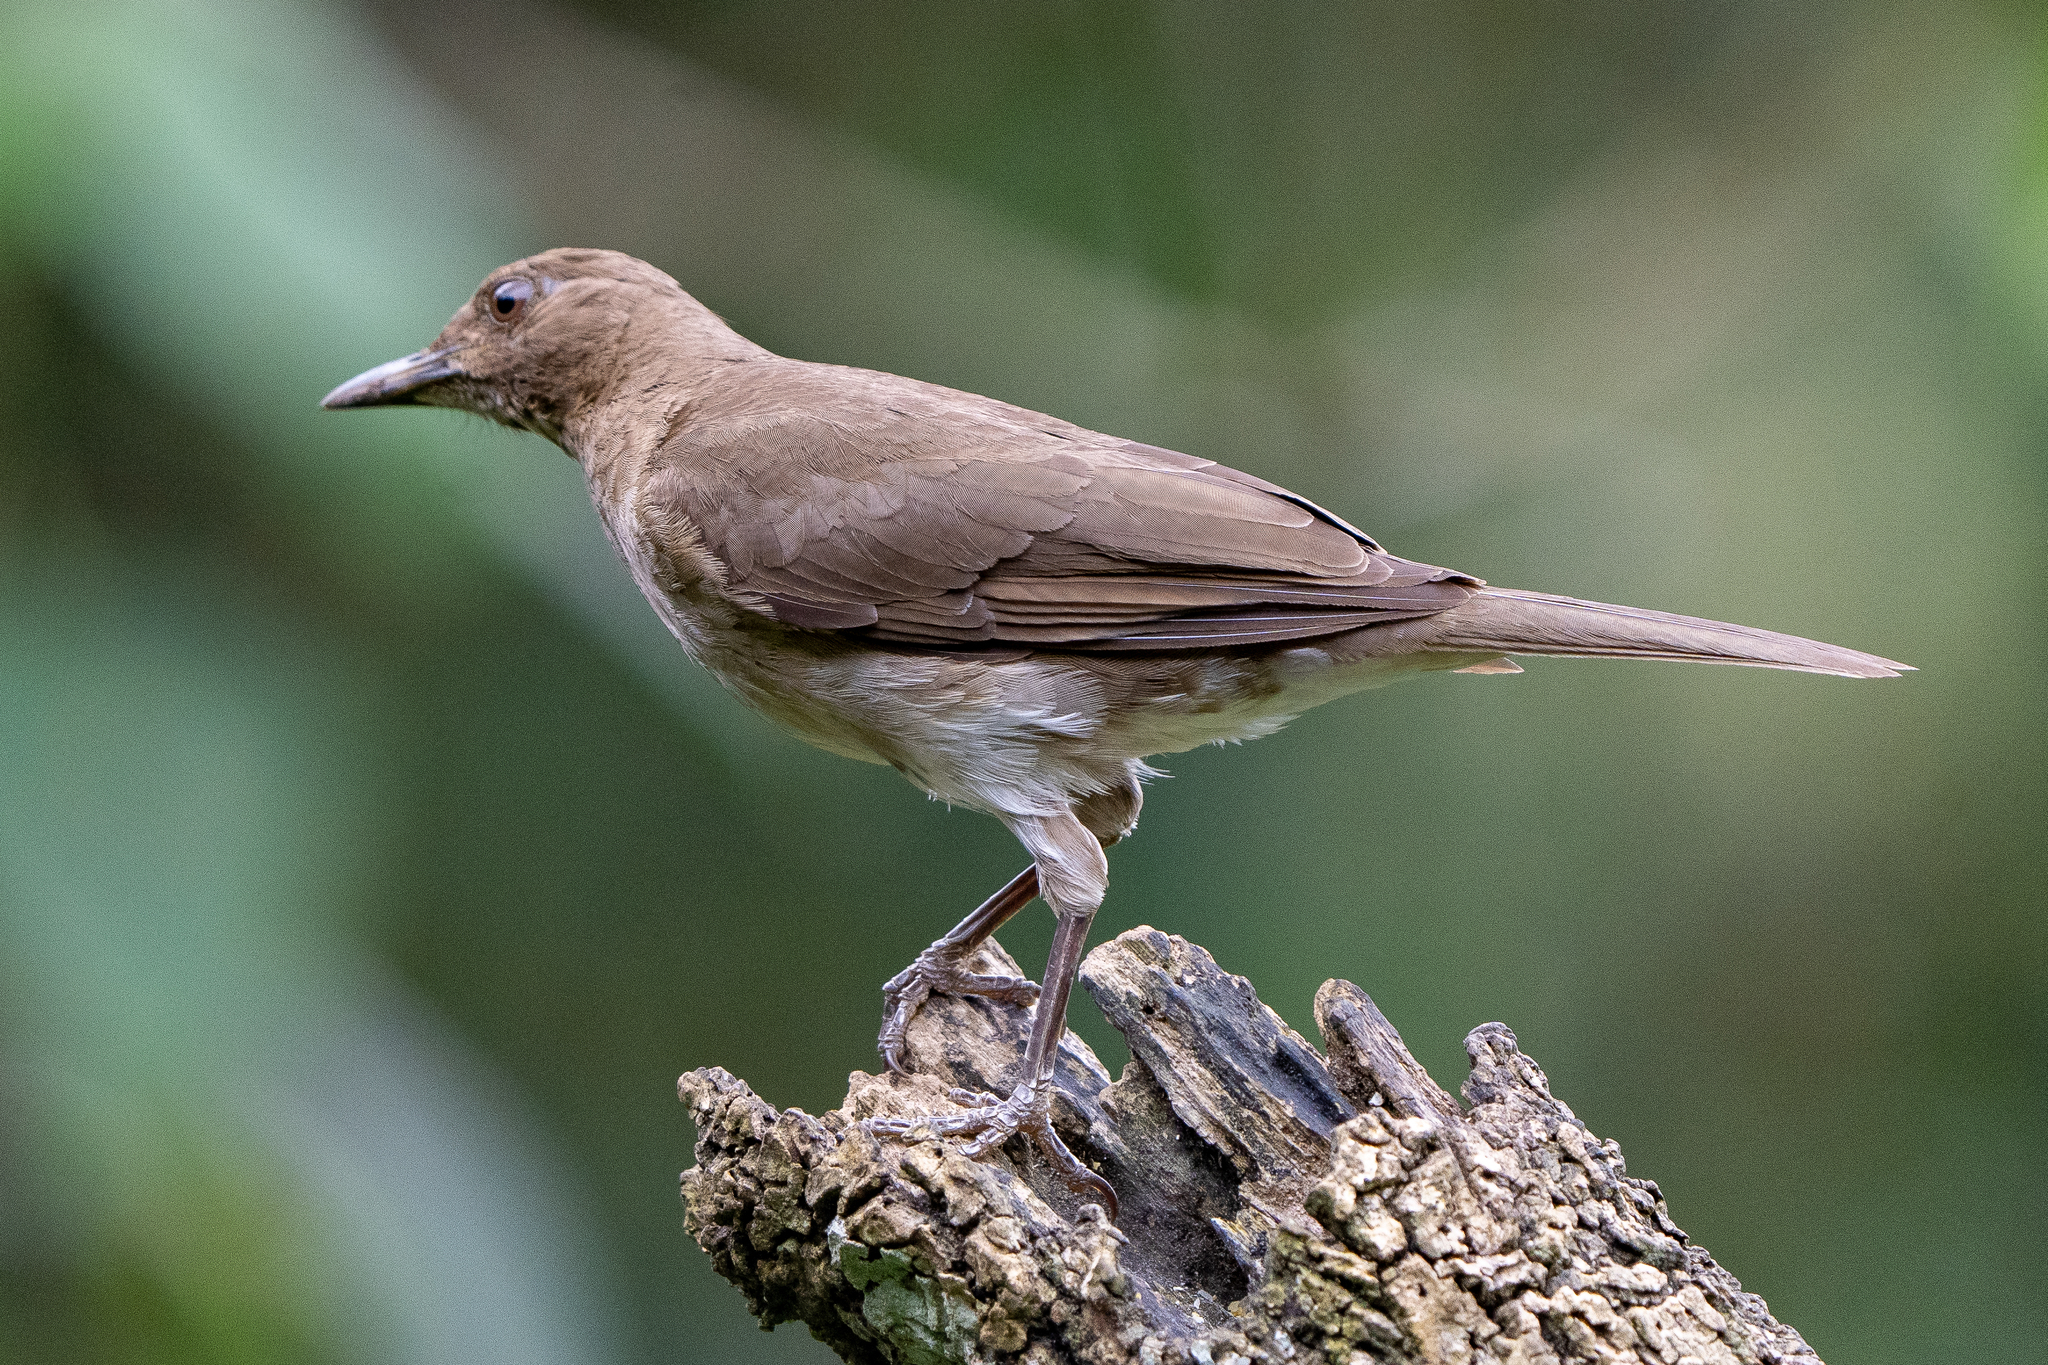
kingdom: Animalia
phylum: Chordata
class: Aves
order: Passeriformes
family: Turdidae
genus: Turdus
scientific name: Turdus ignobilis
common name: Black-billed thrush
